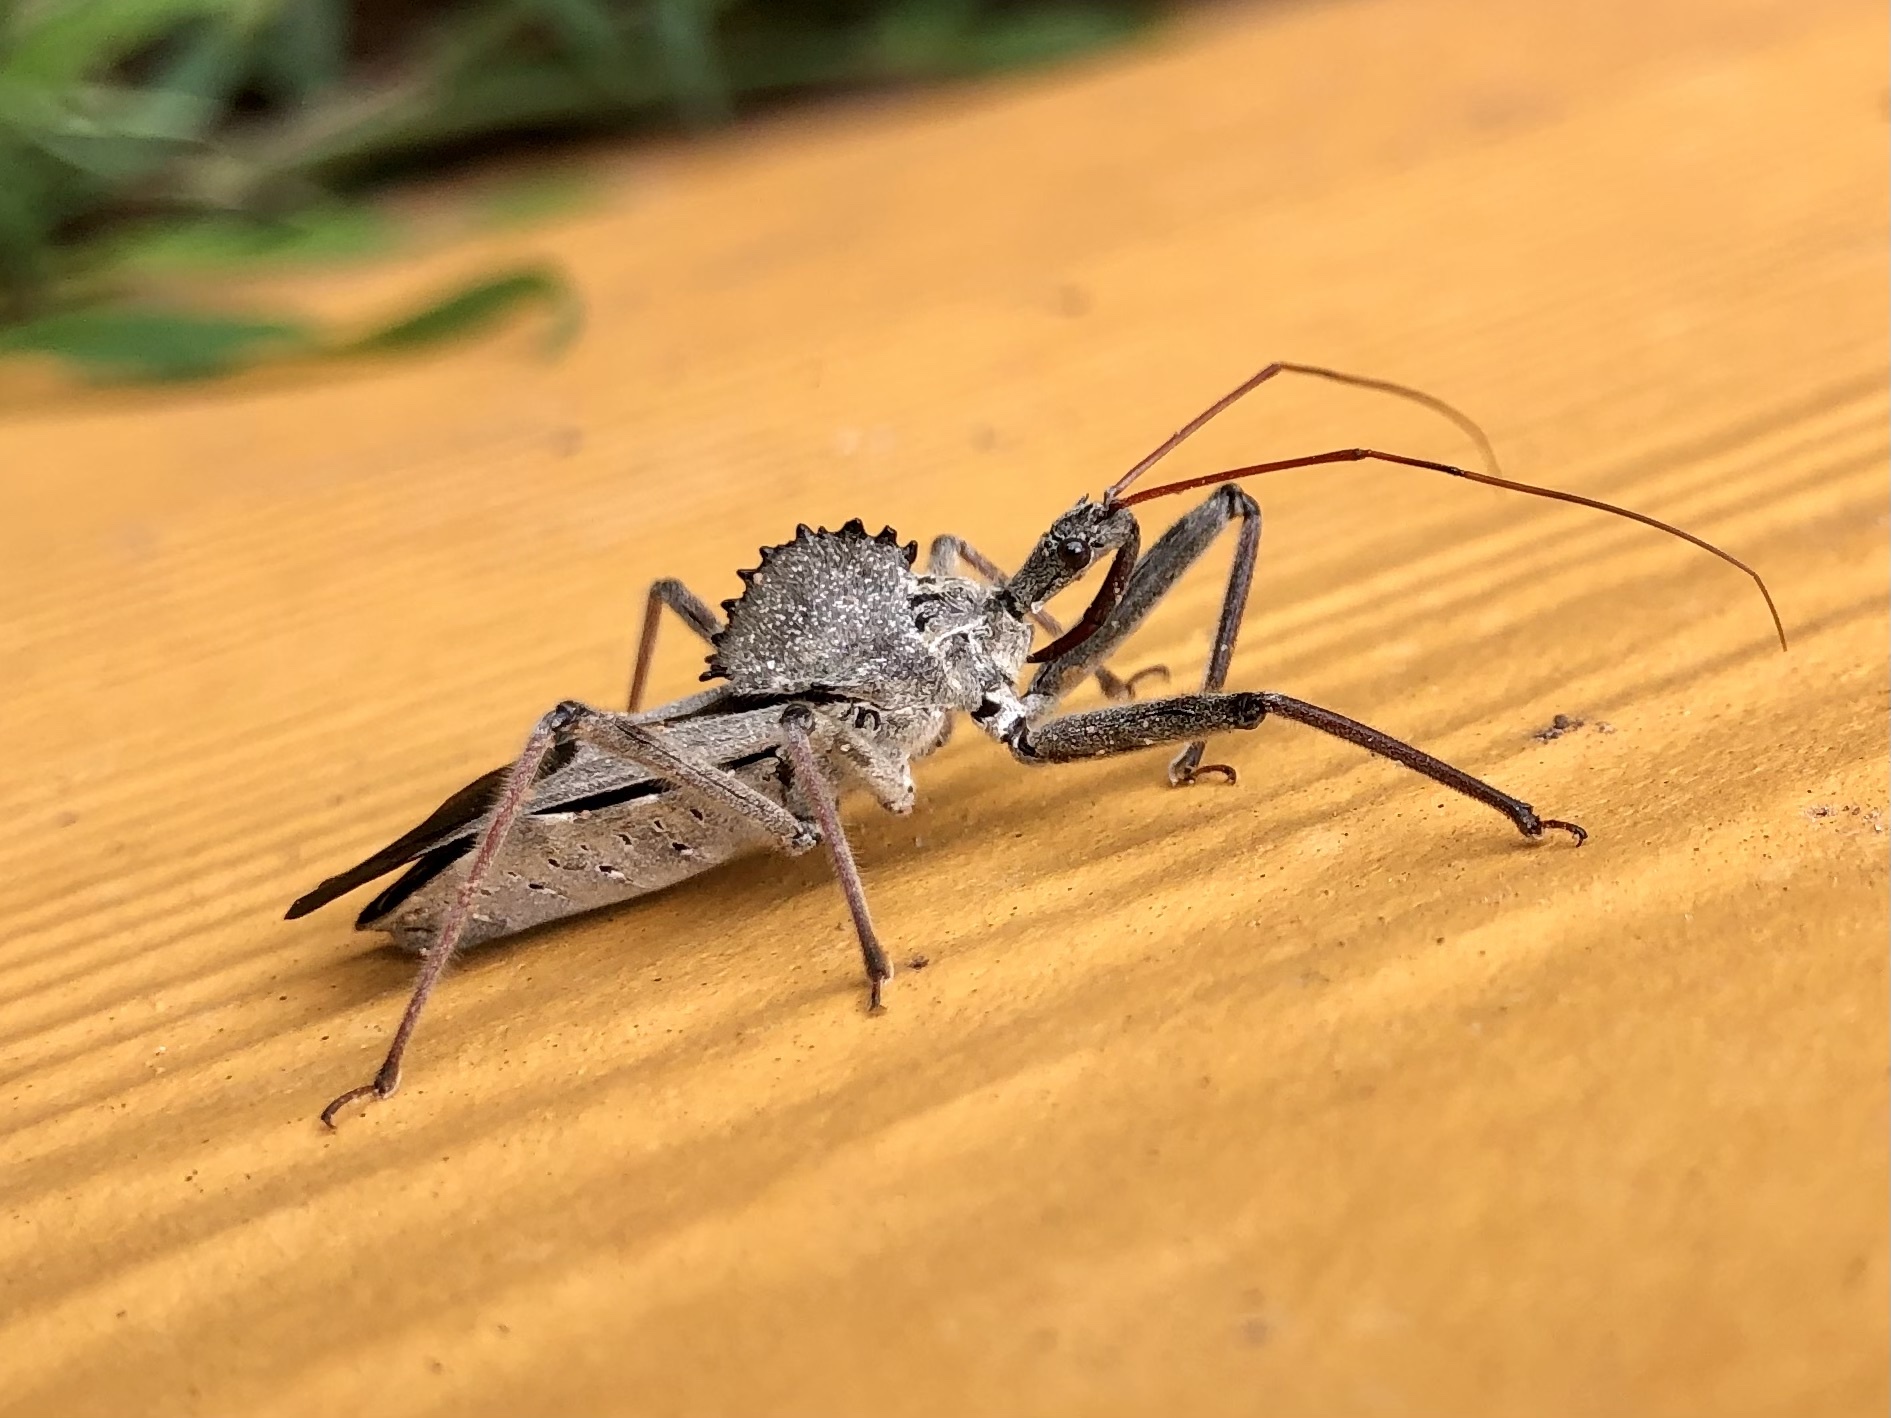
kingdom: Animalia
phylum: Arthropoda
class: Insecta
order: Hemiptera
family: Reduviidae
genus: Arilus
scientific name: Arilus cristatus
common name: North american wheel bug
